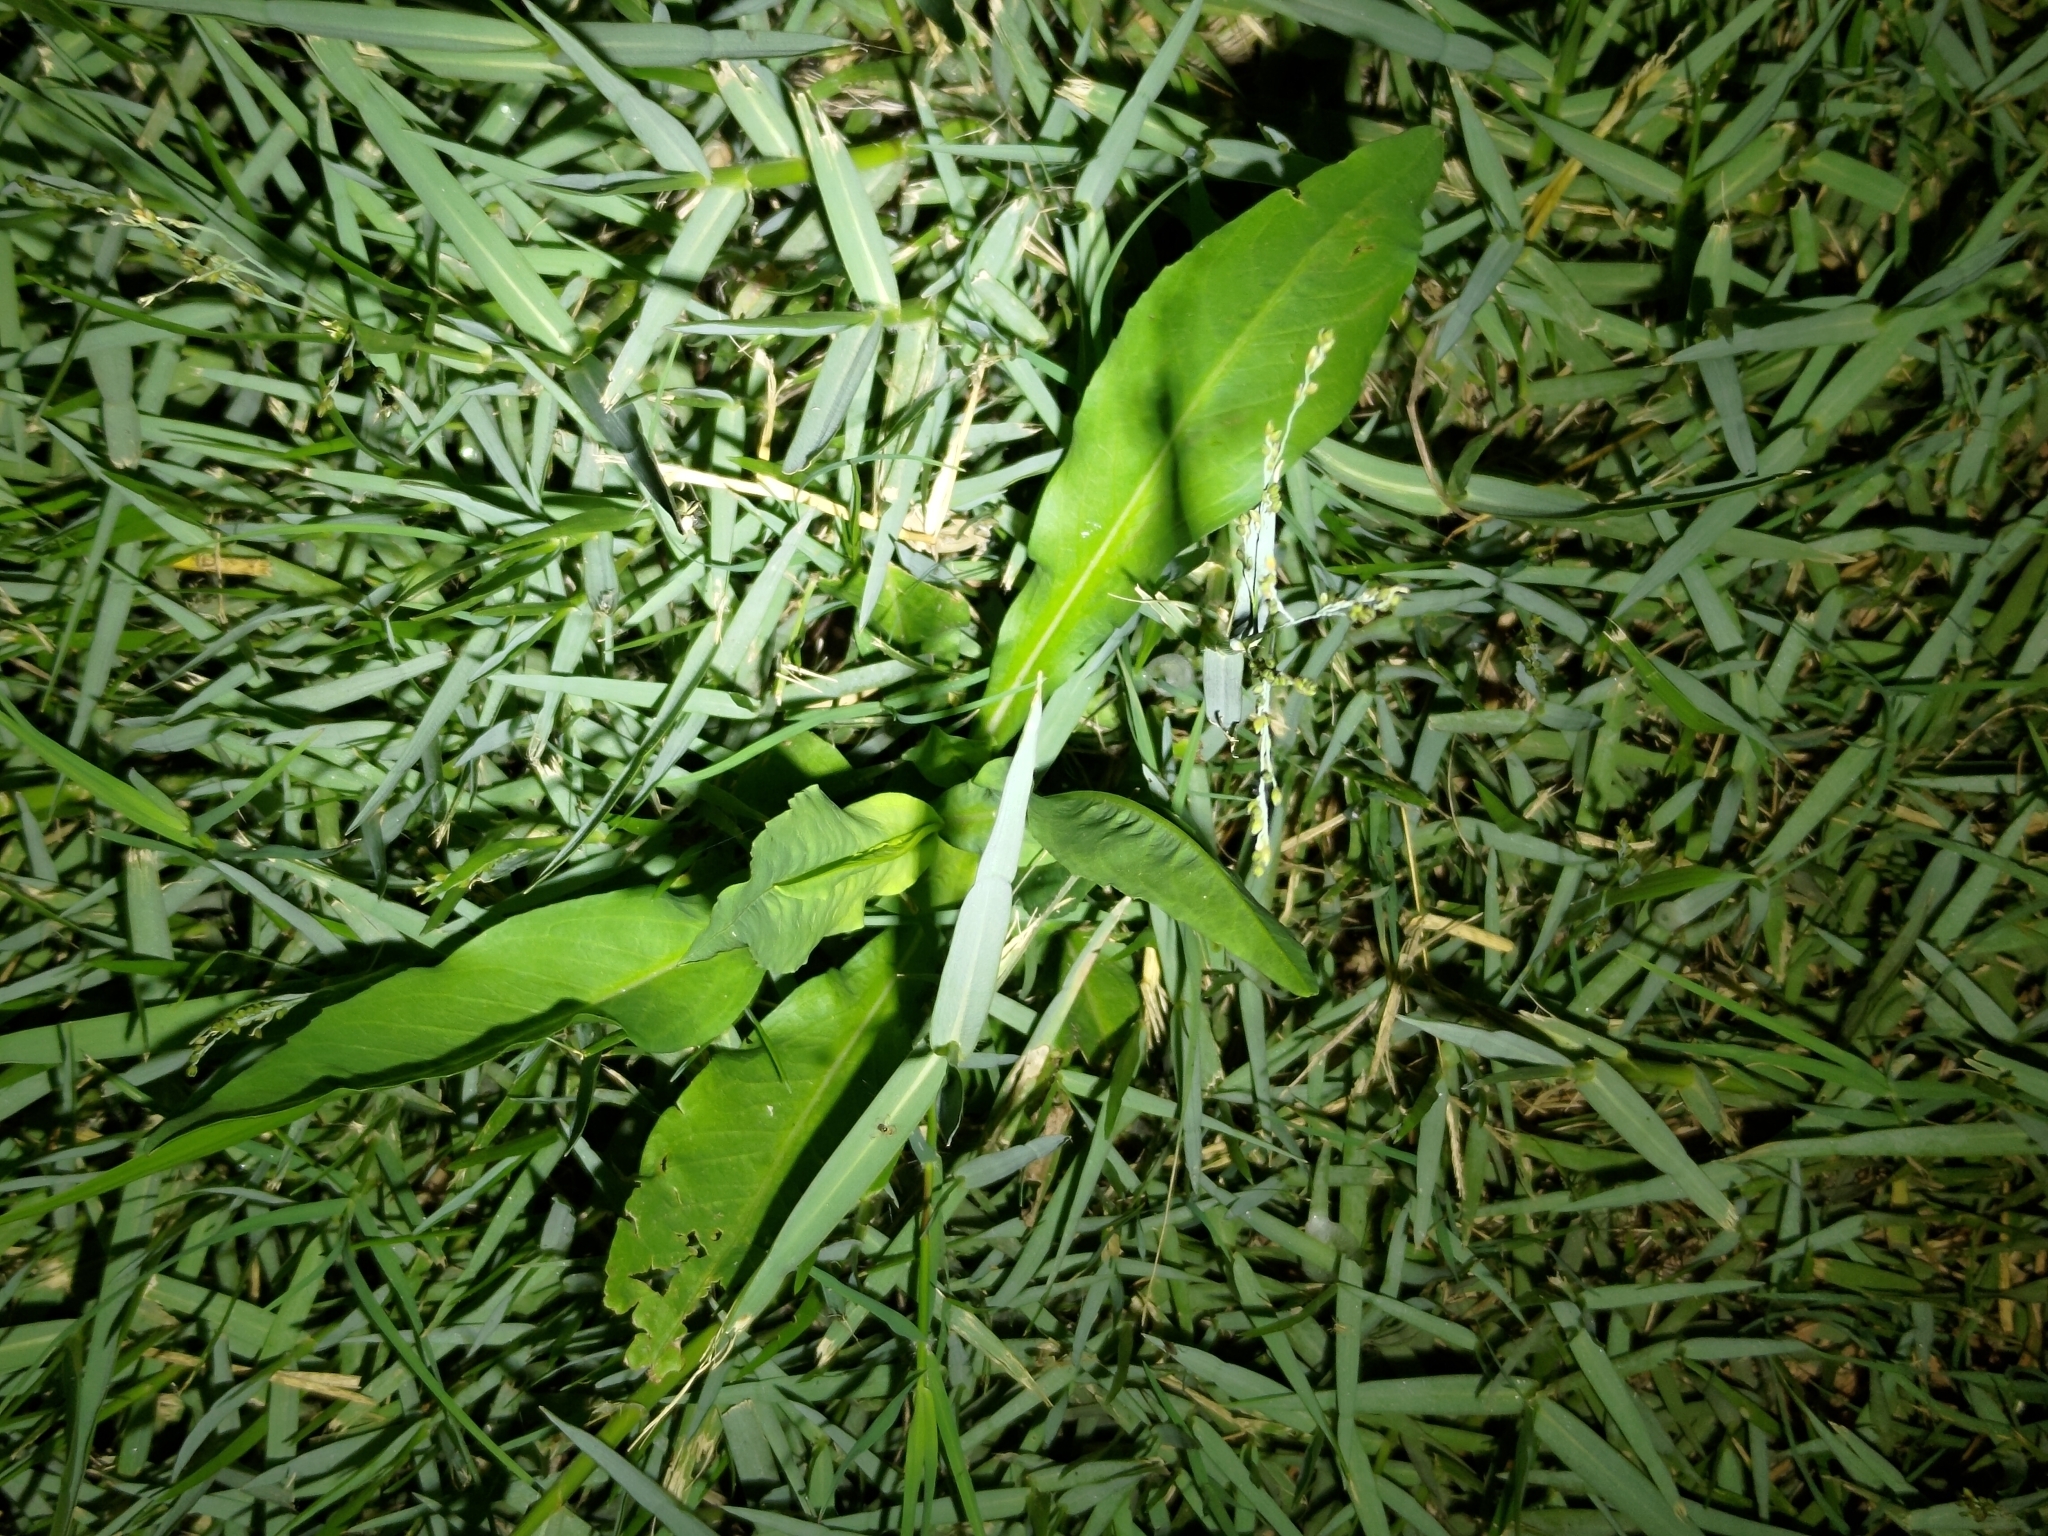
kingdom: Plantae
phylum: Tracheophyta
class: Magnoliopsida
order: Asterales
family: Asteraceae
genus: Symphyotrichum
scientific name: Symphyotrichum subulatum
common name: Annual saltmarsh aster
